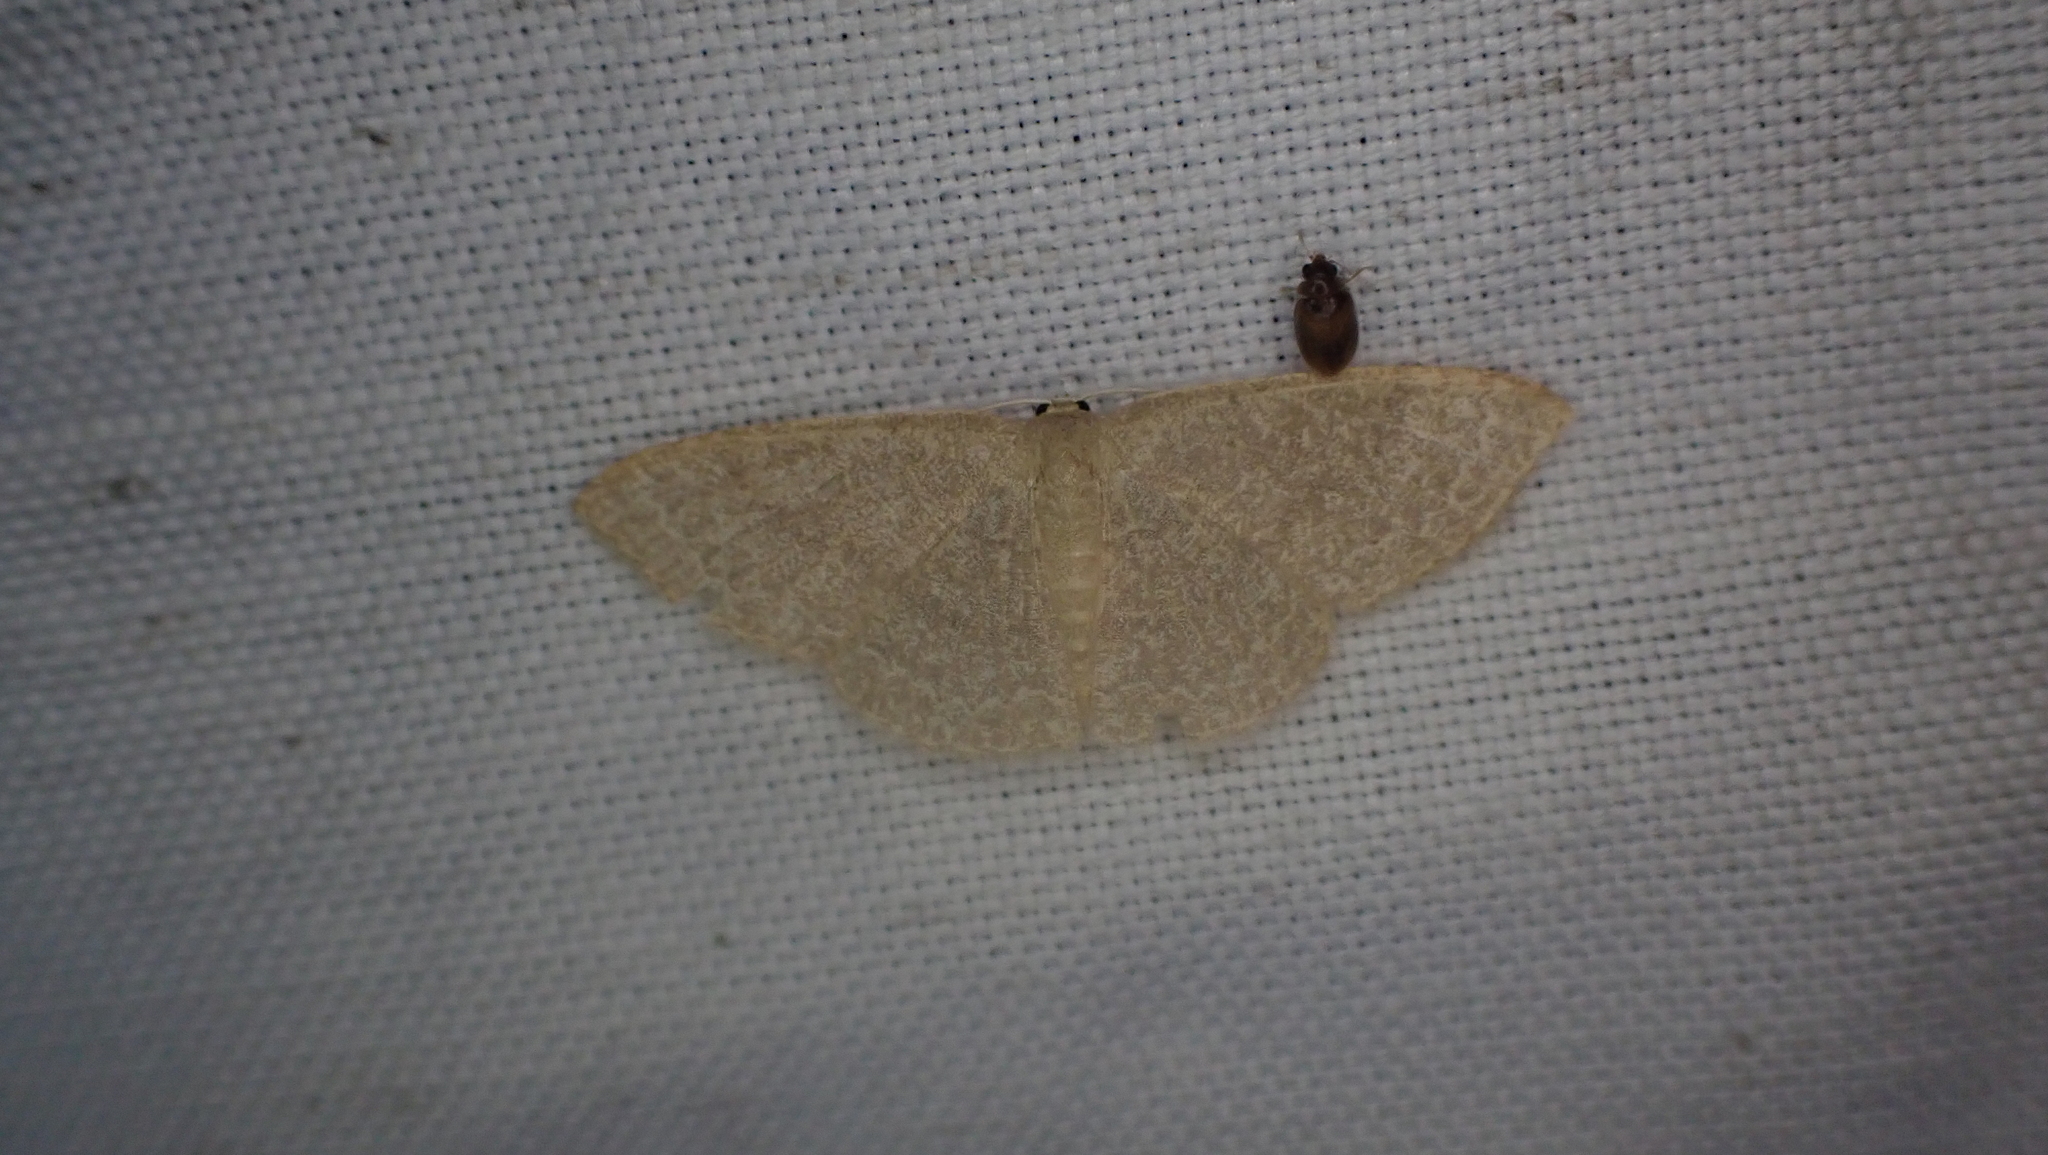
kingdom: Animalia
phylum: Arthropoda
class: Insecta
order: Lepidoptera
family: Geometridae
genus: Pleuroprucha
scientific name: Pleuroprucha insulsaria
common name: Common tan wave
